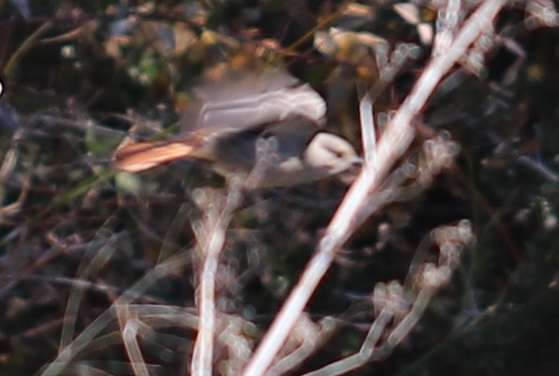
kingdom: Animalia
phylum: Chordata
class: Aves
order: Passeriformes
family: Muscicapidae
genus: Phoenicurus
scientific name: Phoenicurus ochruros
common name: Black redstart
